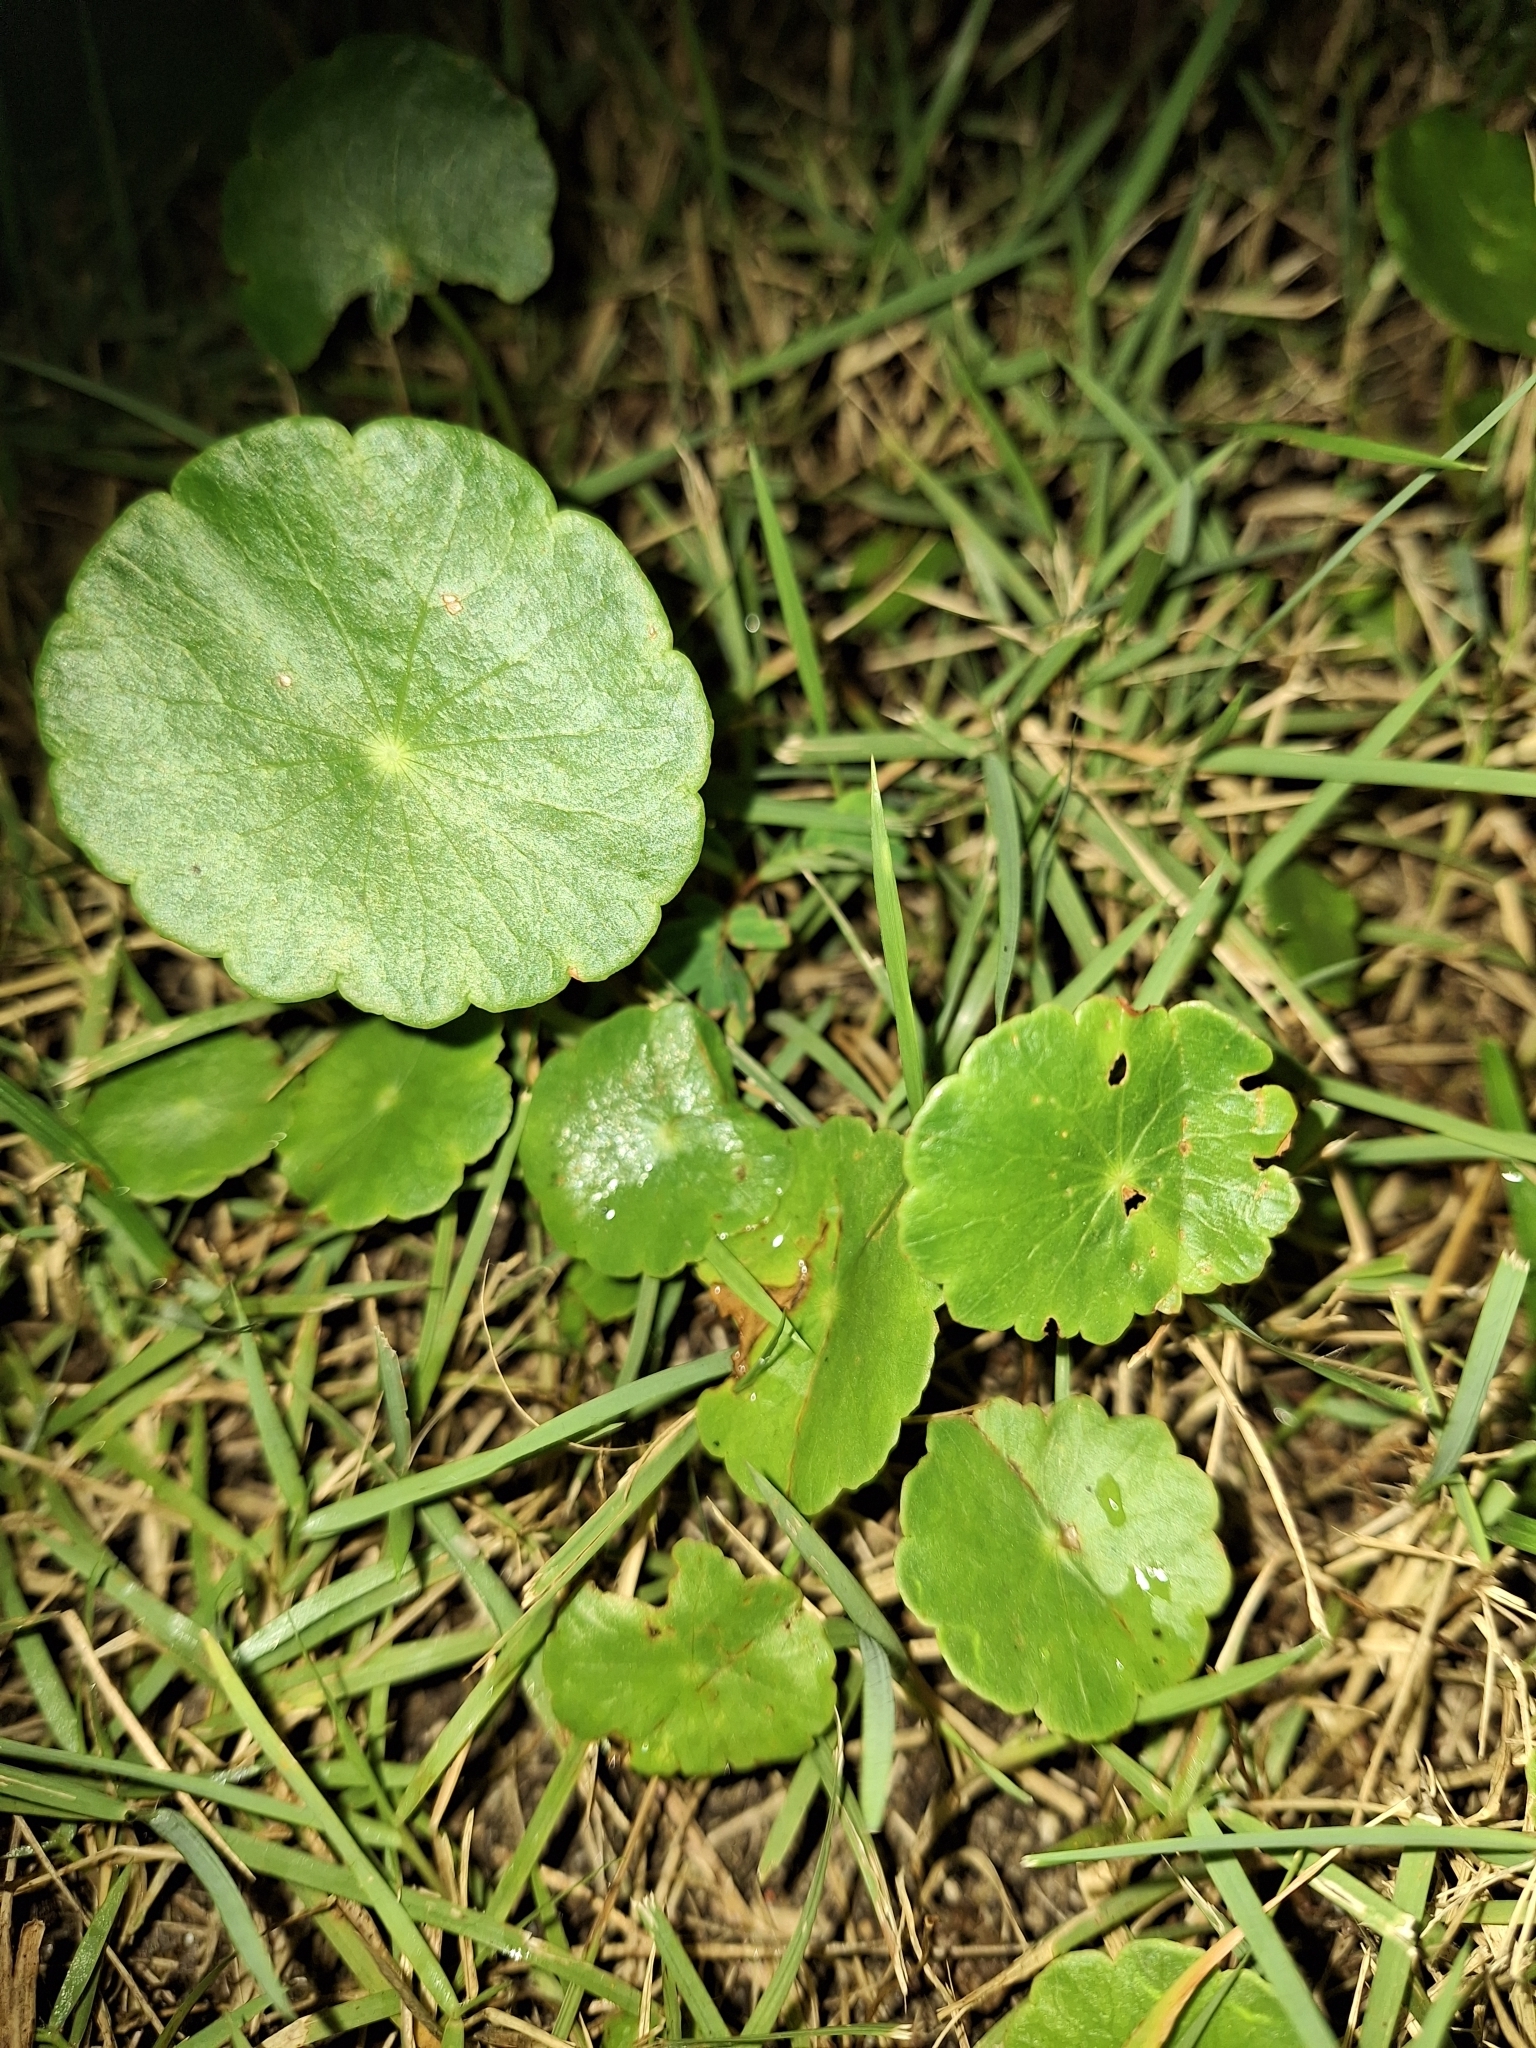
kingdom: Plantae
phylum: Tracheophyta
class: Magnoliopsida
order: Apiales
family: Araliaceae
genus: Hydrocotyle
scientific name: Hydrocotyle verticillata
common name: Whorled marshpennywort
